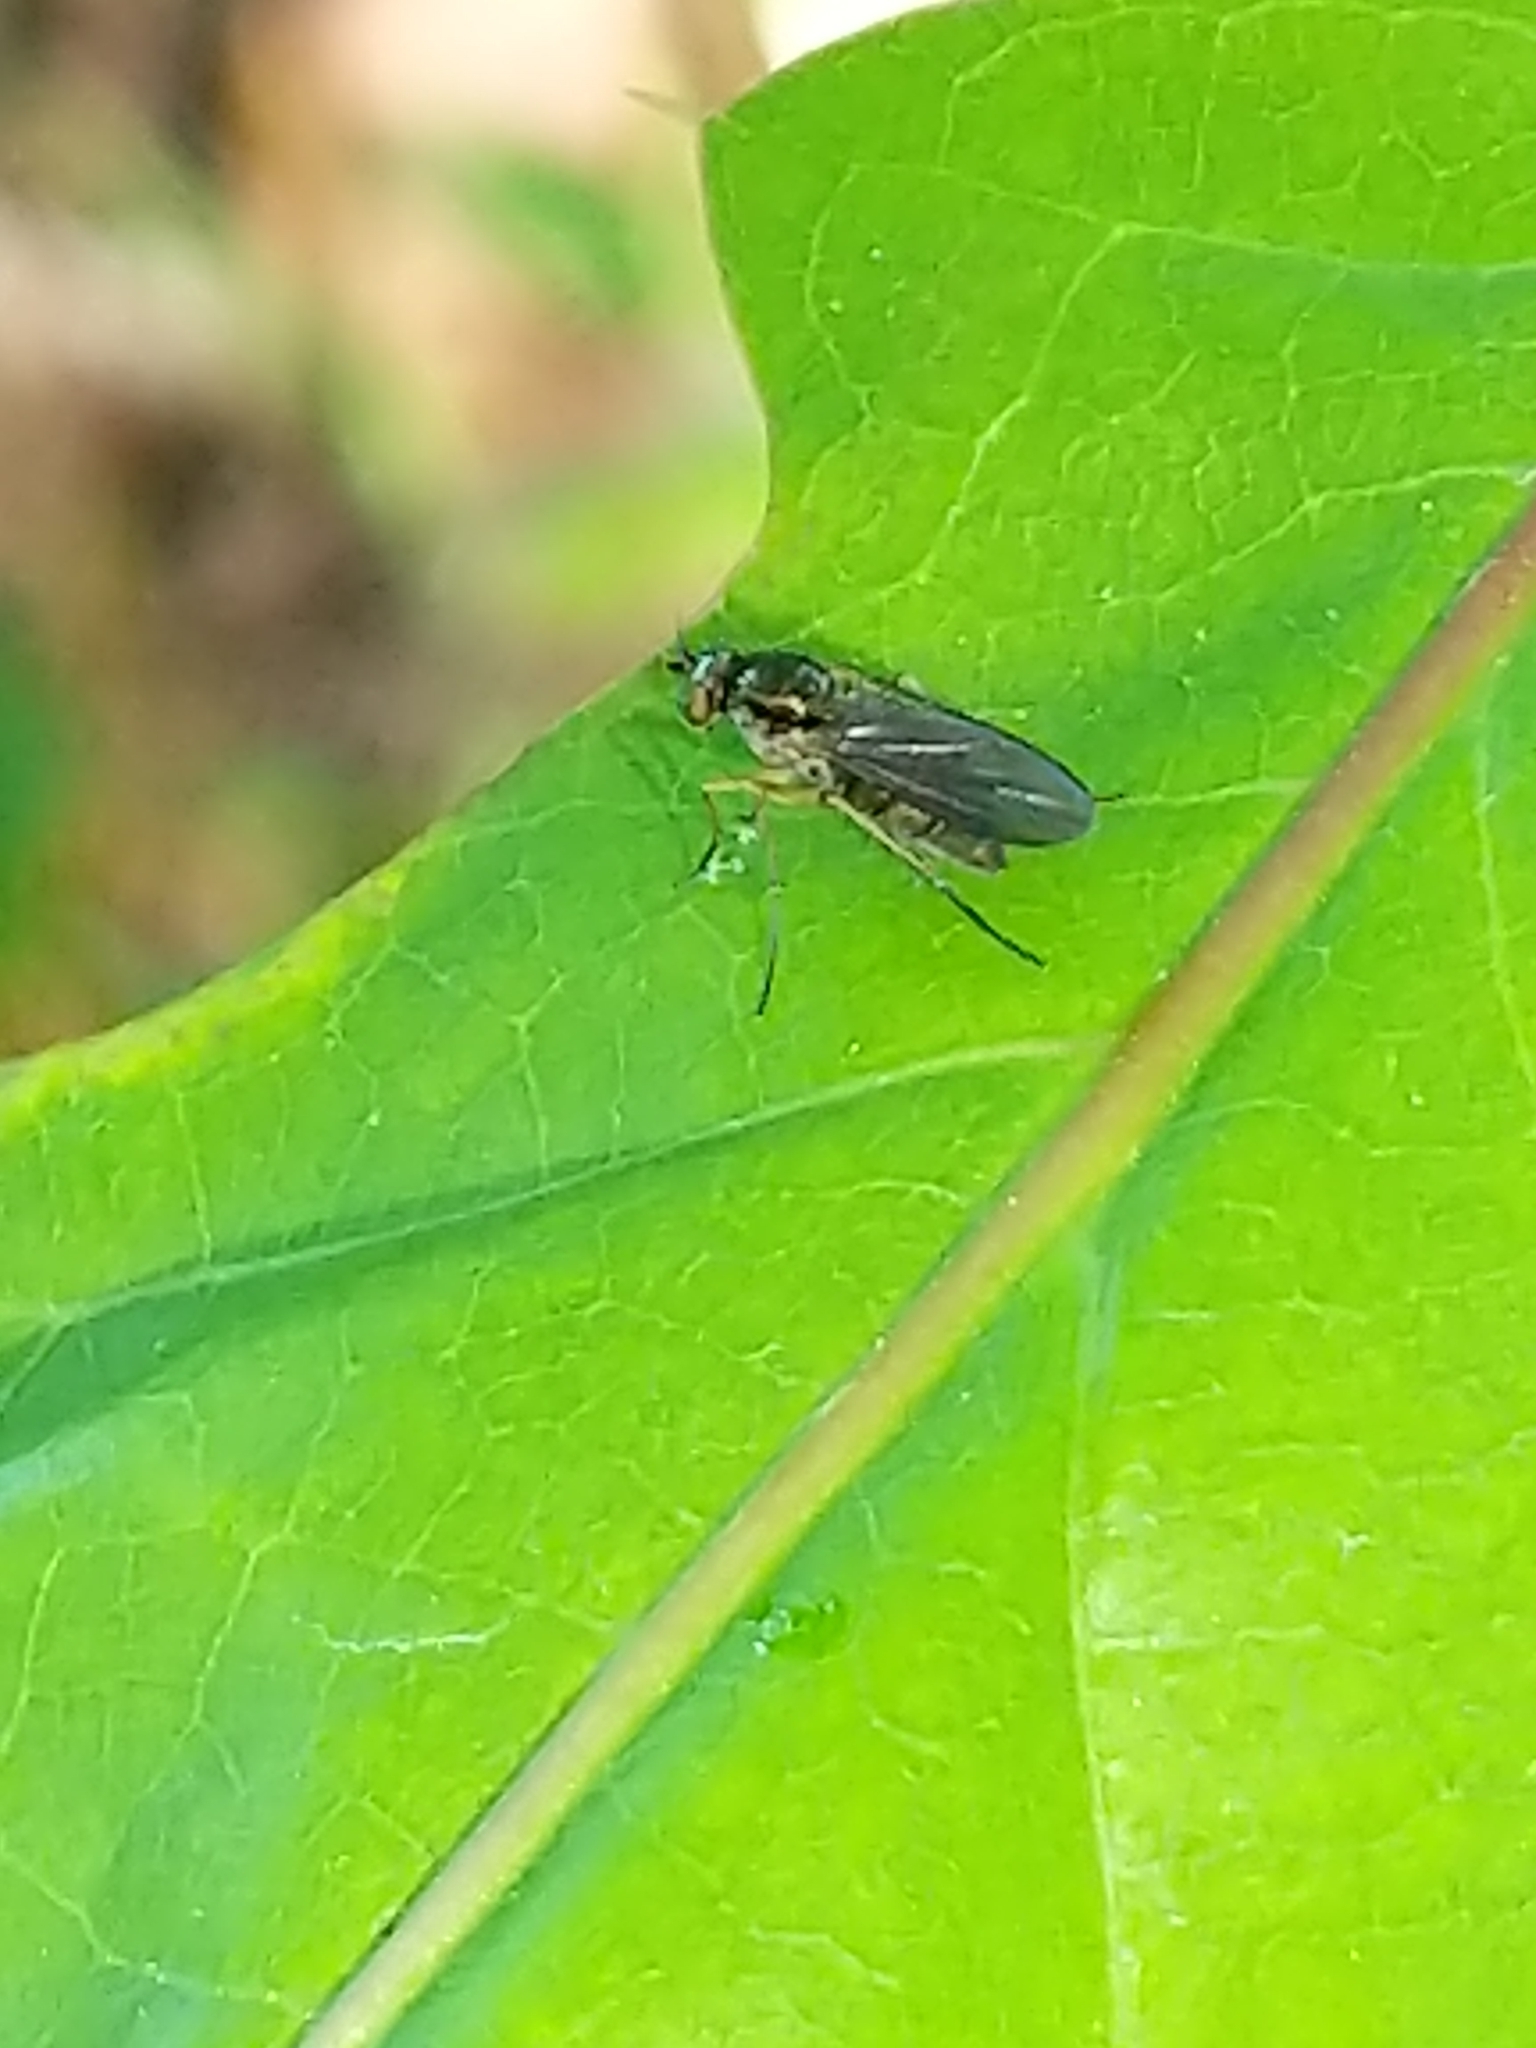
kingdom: Animalia
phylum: Arthropoda
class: Insecta
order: Diptera
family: Dolichopodidae
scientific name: Dolichopodidae
